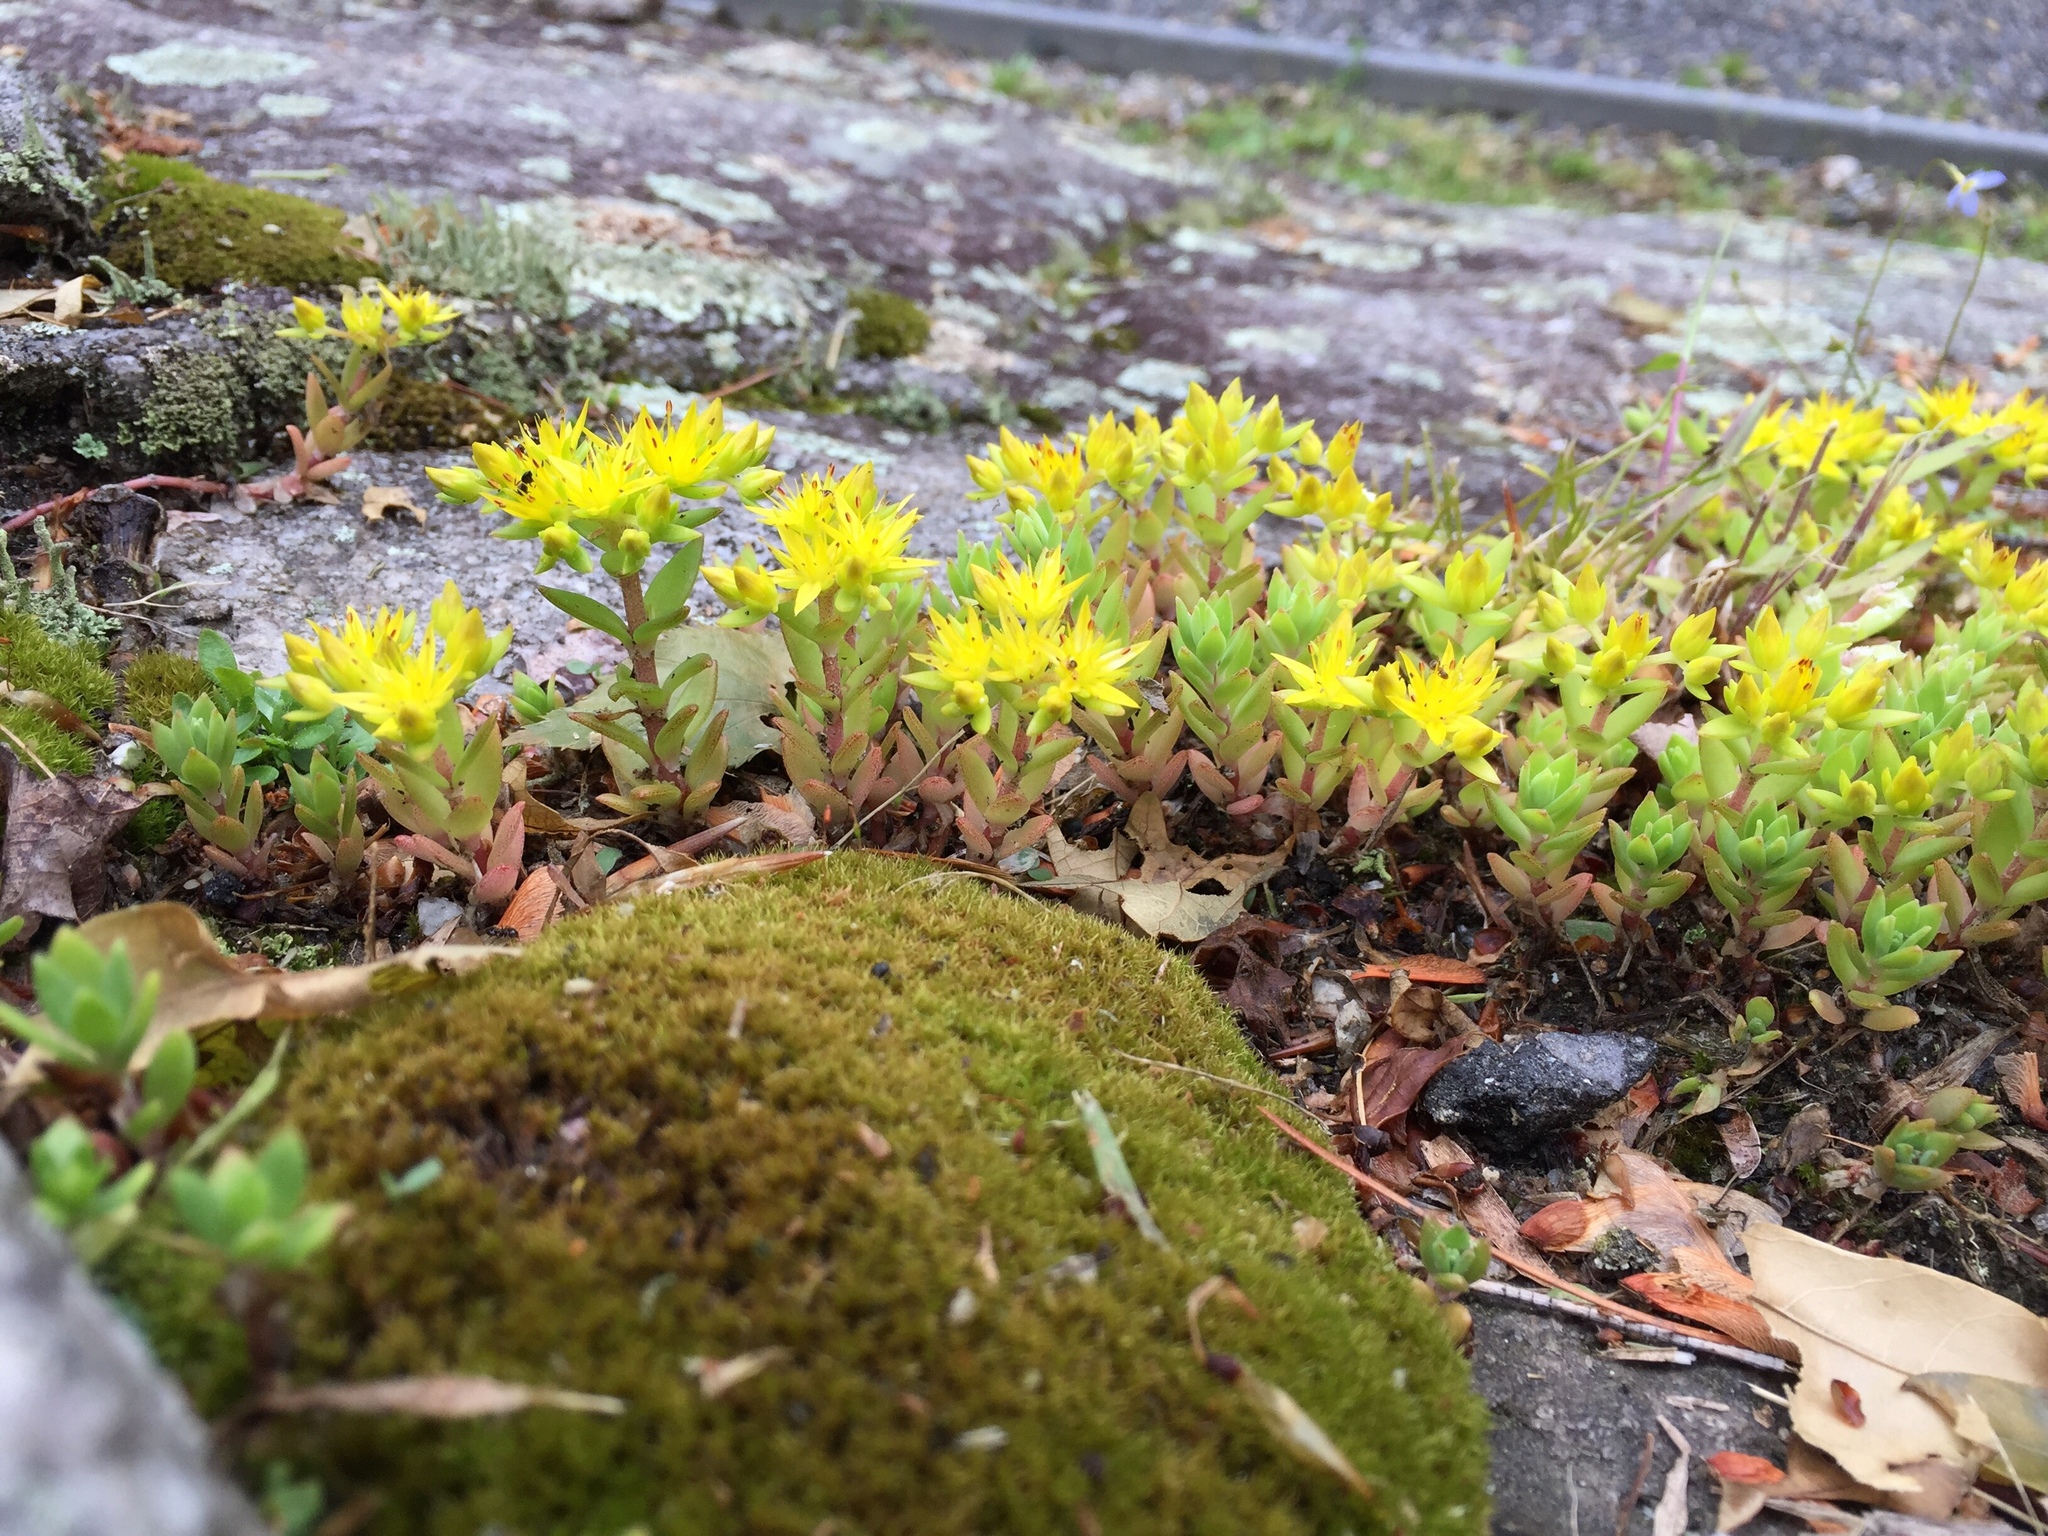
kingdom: Plantae
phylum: Tracheophyta
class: Magnoliopsida
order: Saxifragales
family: Crassulaceae
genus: Sedum
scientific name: Sedum sarmentosum
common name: Stringy stonecrop
